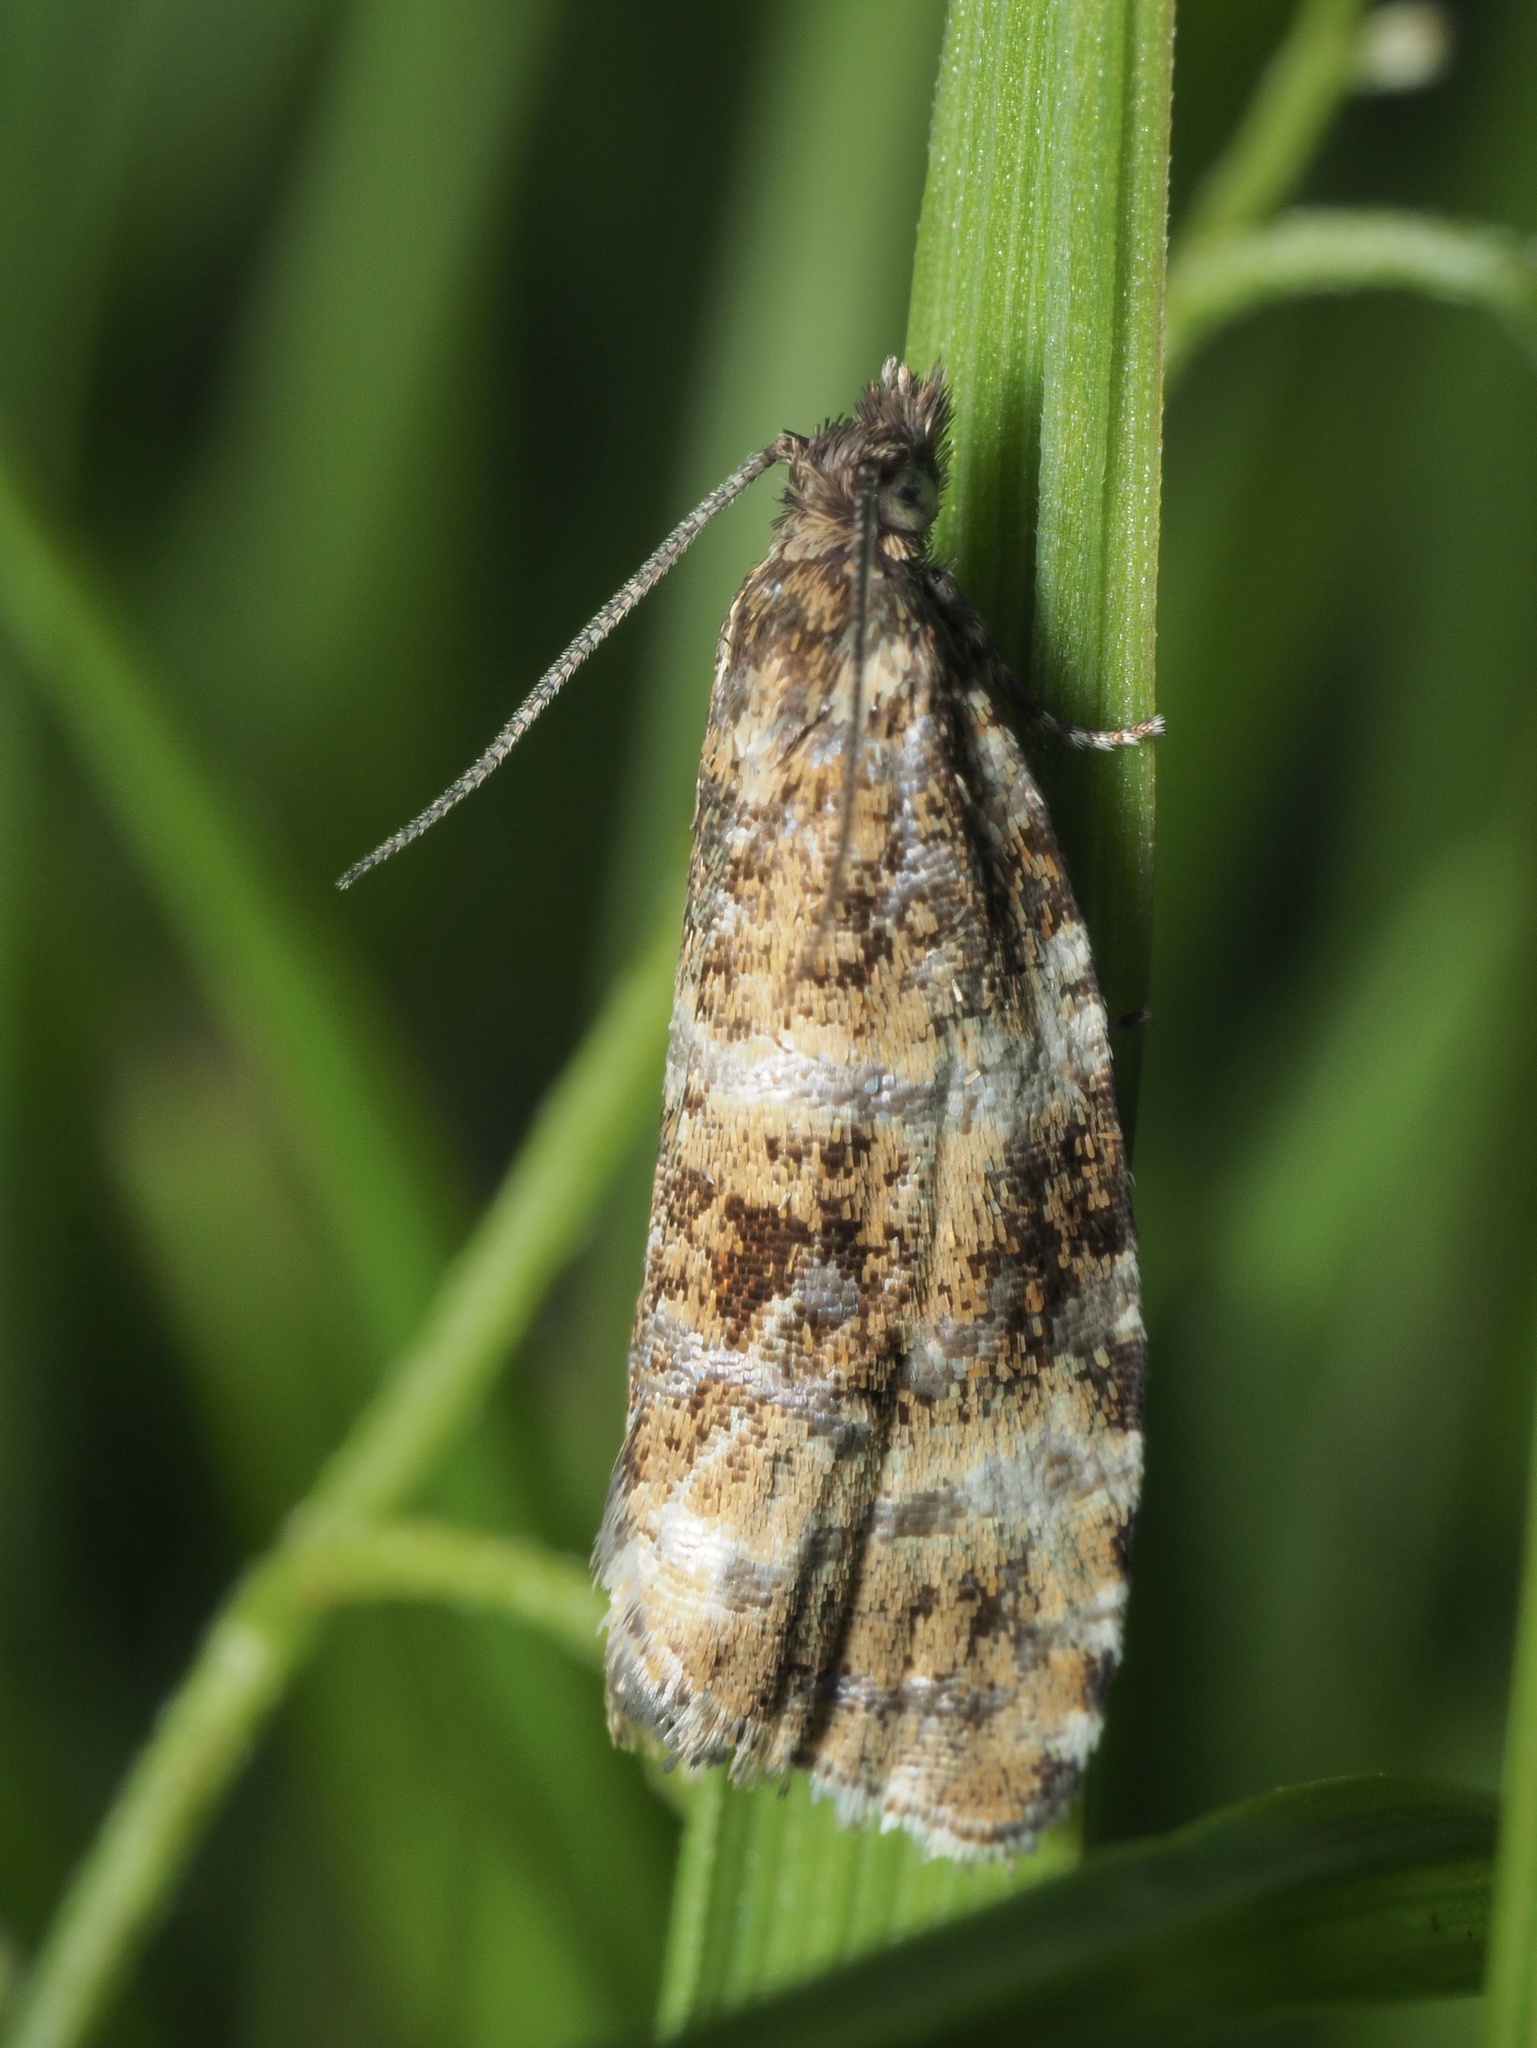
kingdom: Animalia
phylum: Arthropoda
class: Insecta
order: Lepidoptera
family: Tortricidae
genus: Olethreutes
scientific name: Olethreutes micana
